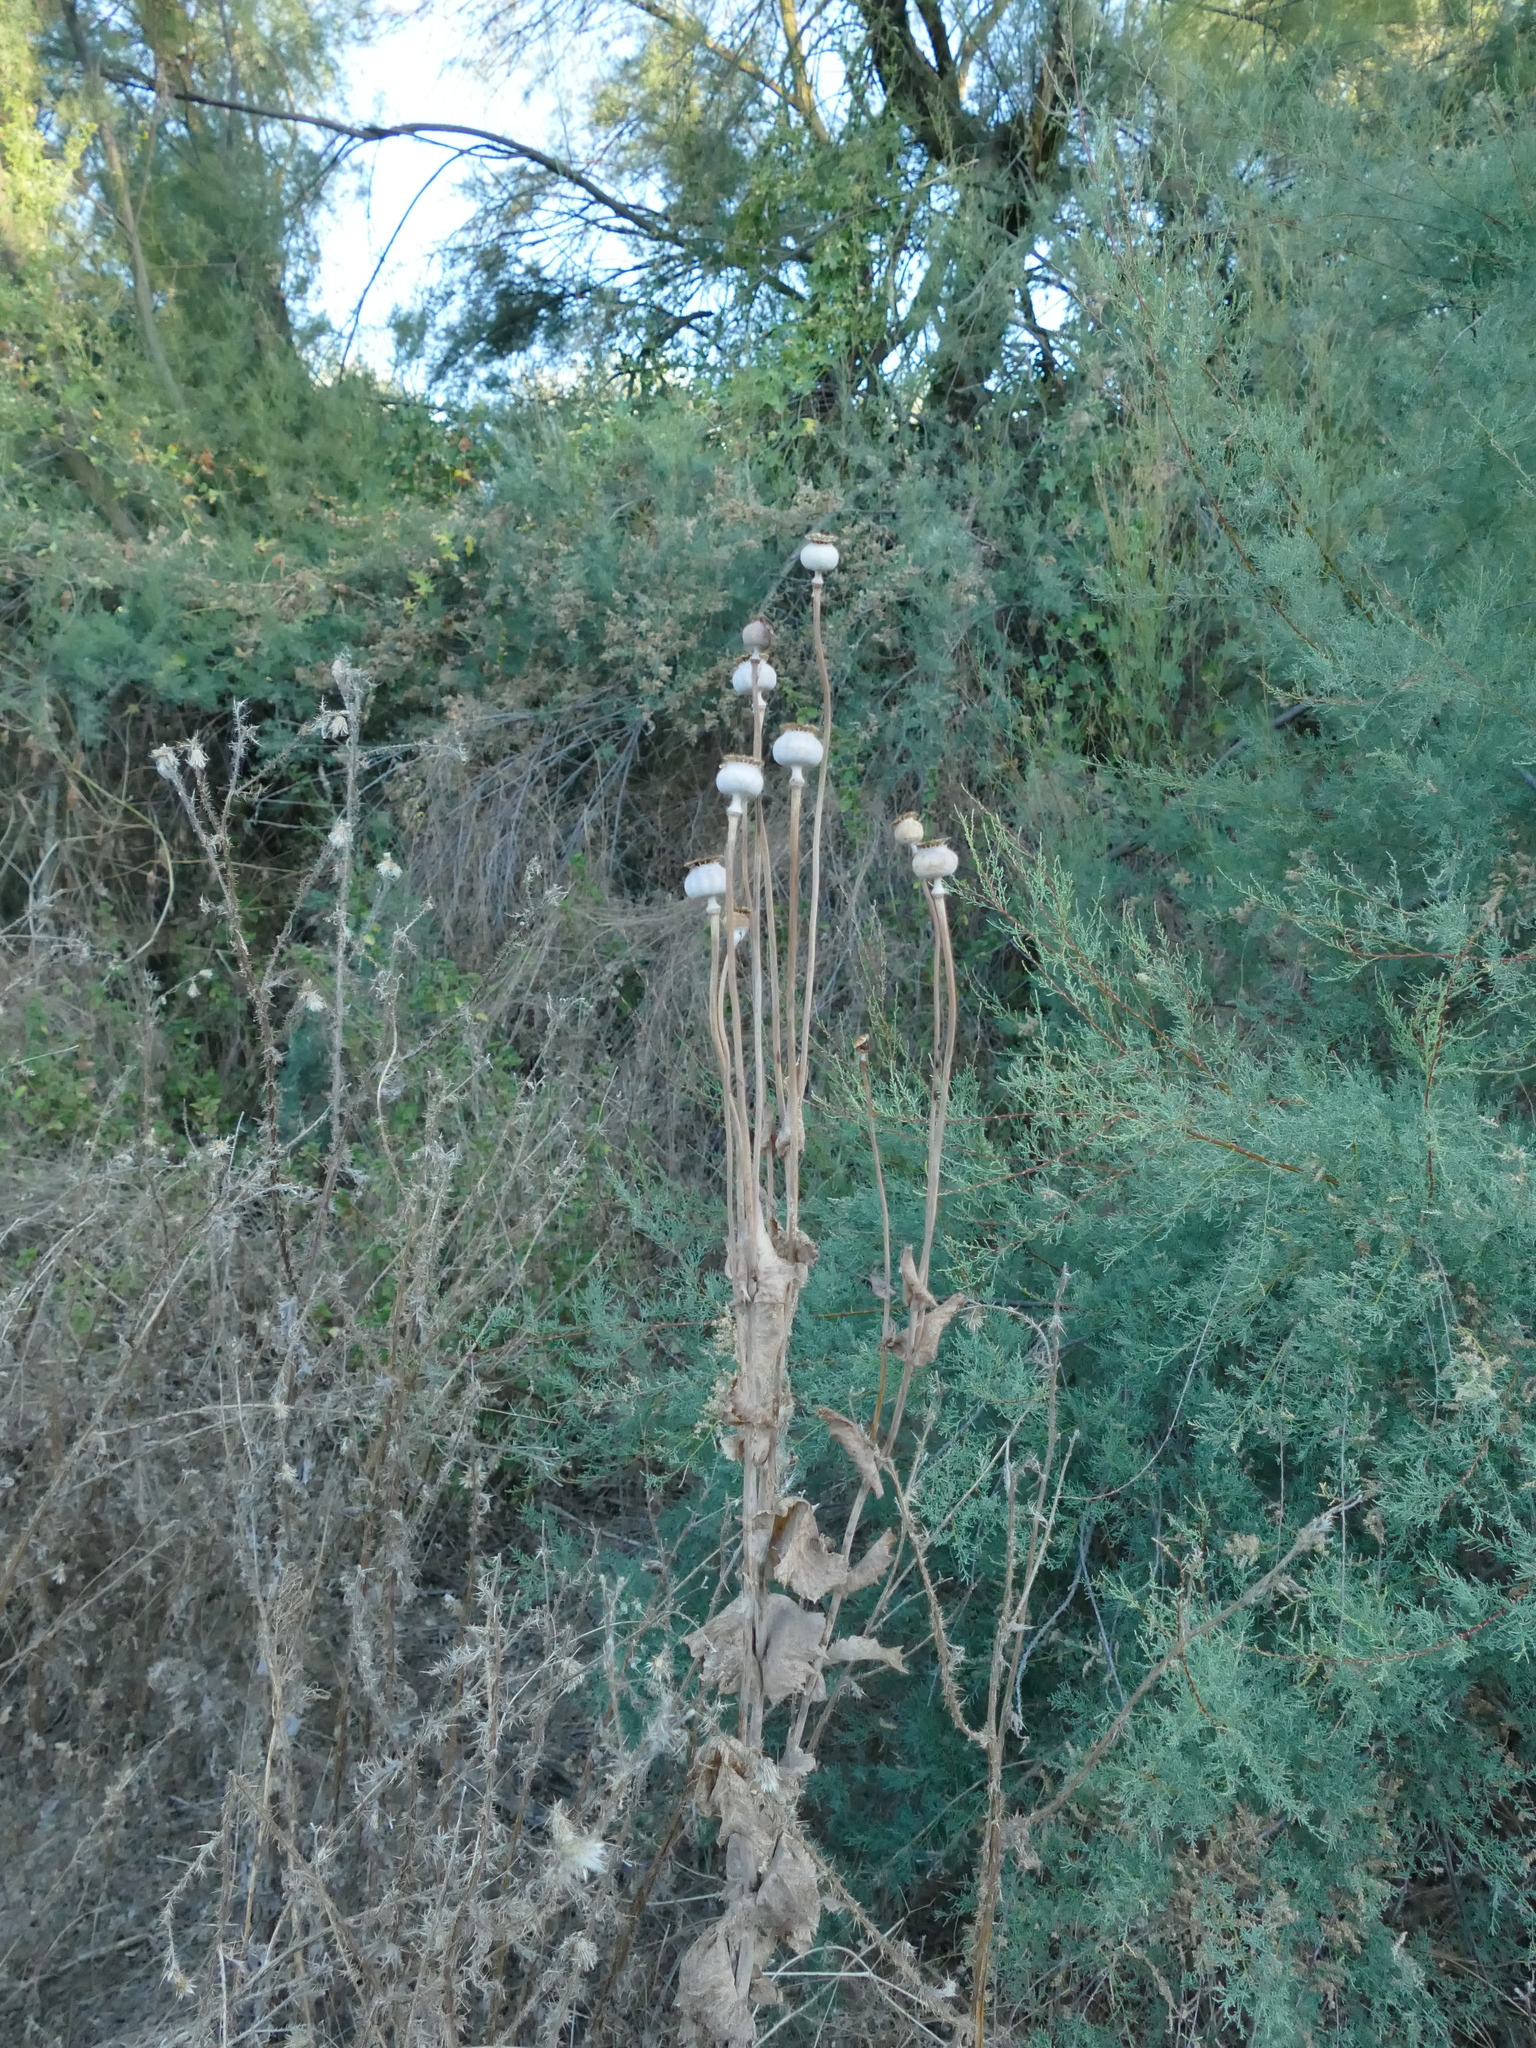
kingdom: Plantae
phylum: Tracheophyta
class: Magnoliopsida
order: Ranunculales
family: Papaveraceae
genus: Papaver
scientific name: Papaver somniferum
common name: Opium poppy
